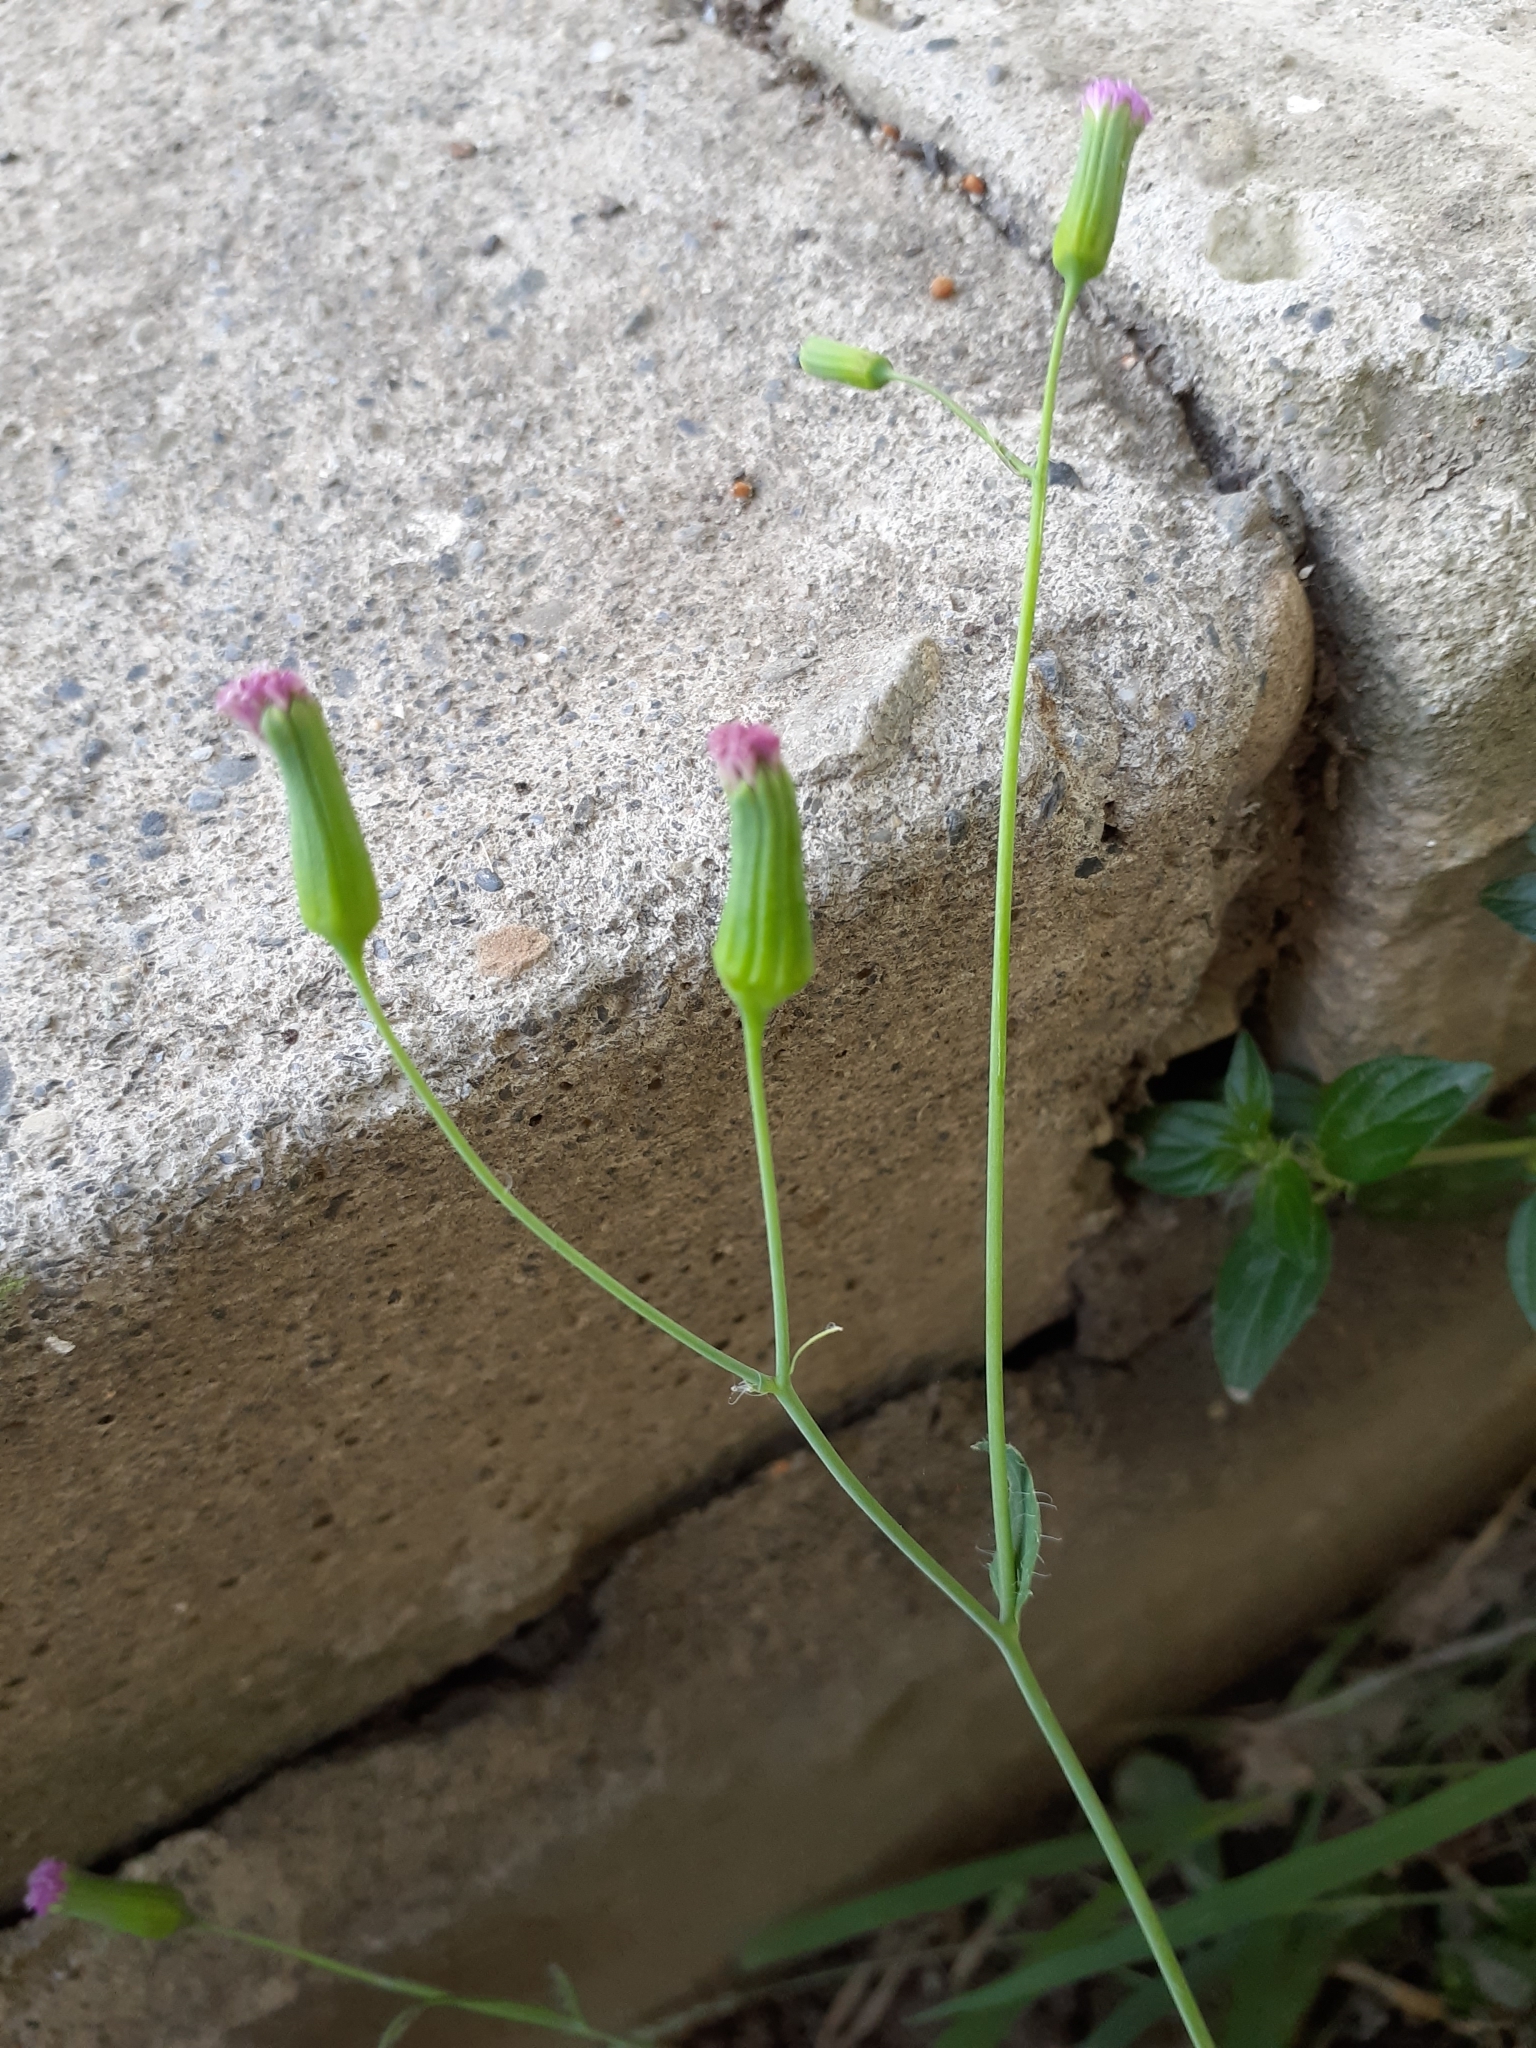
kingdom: Plantae
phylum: Tracheophyta
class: Magnoliopsida
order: Asterales
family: Asteraceae
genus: Emilia
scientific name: Emilia javanica
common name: Tassel-flower
